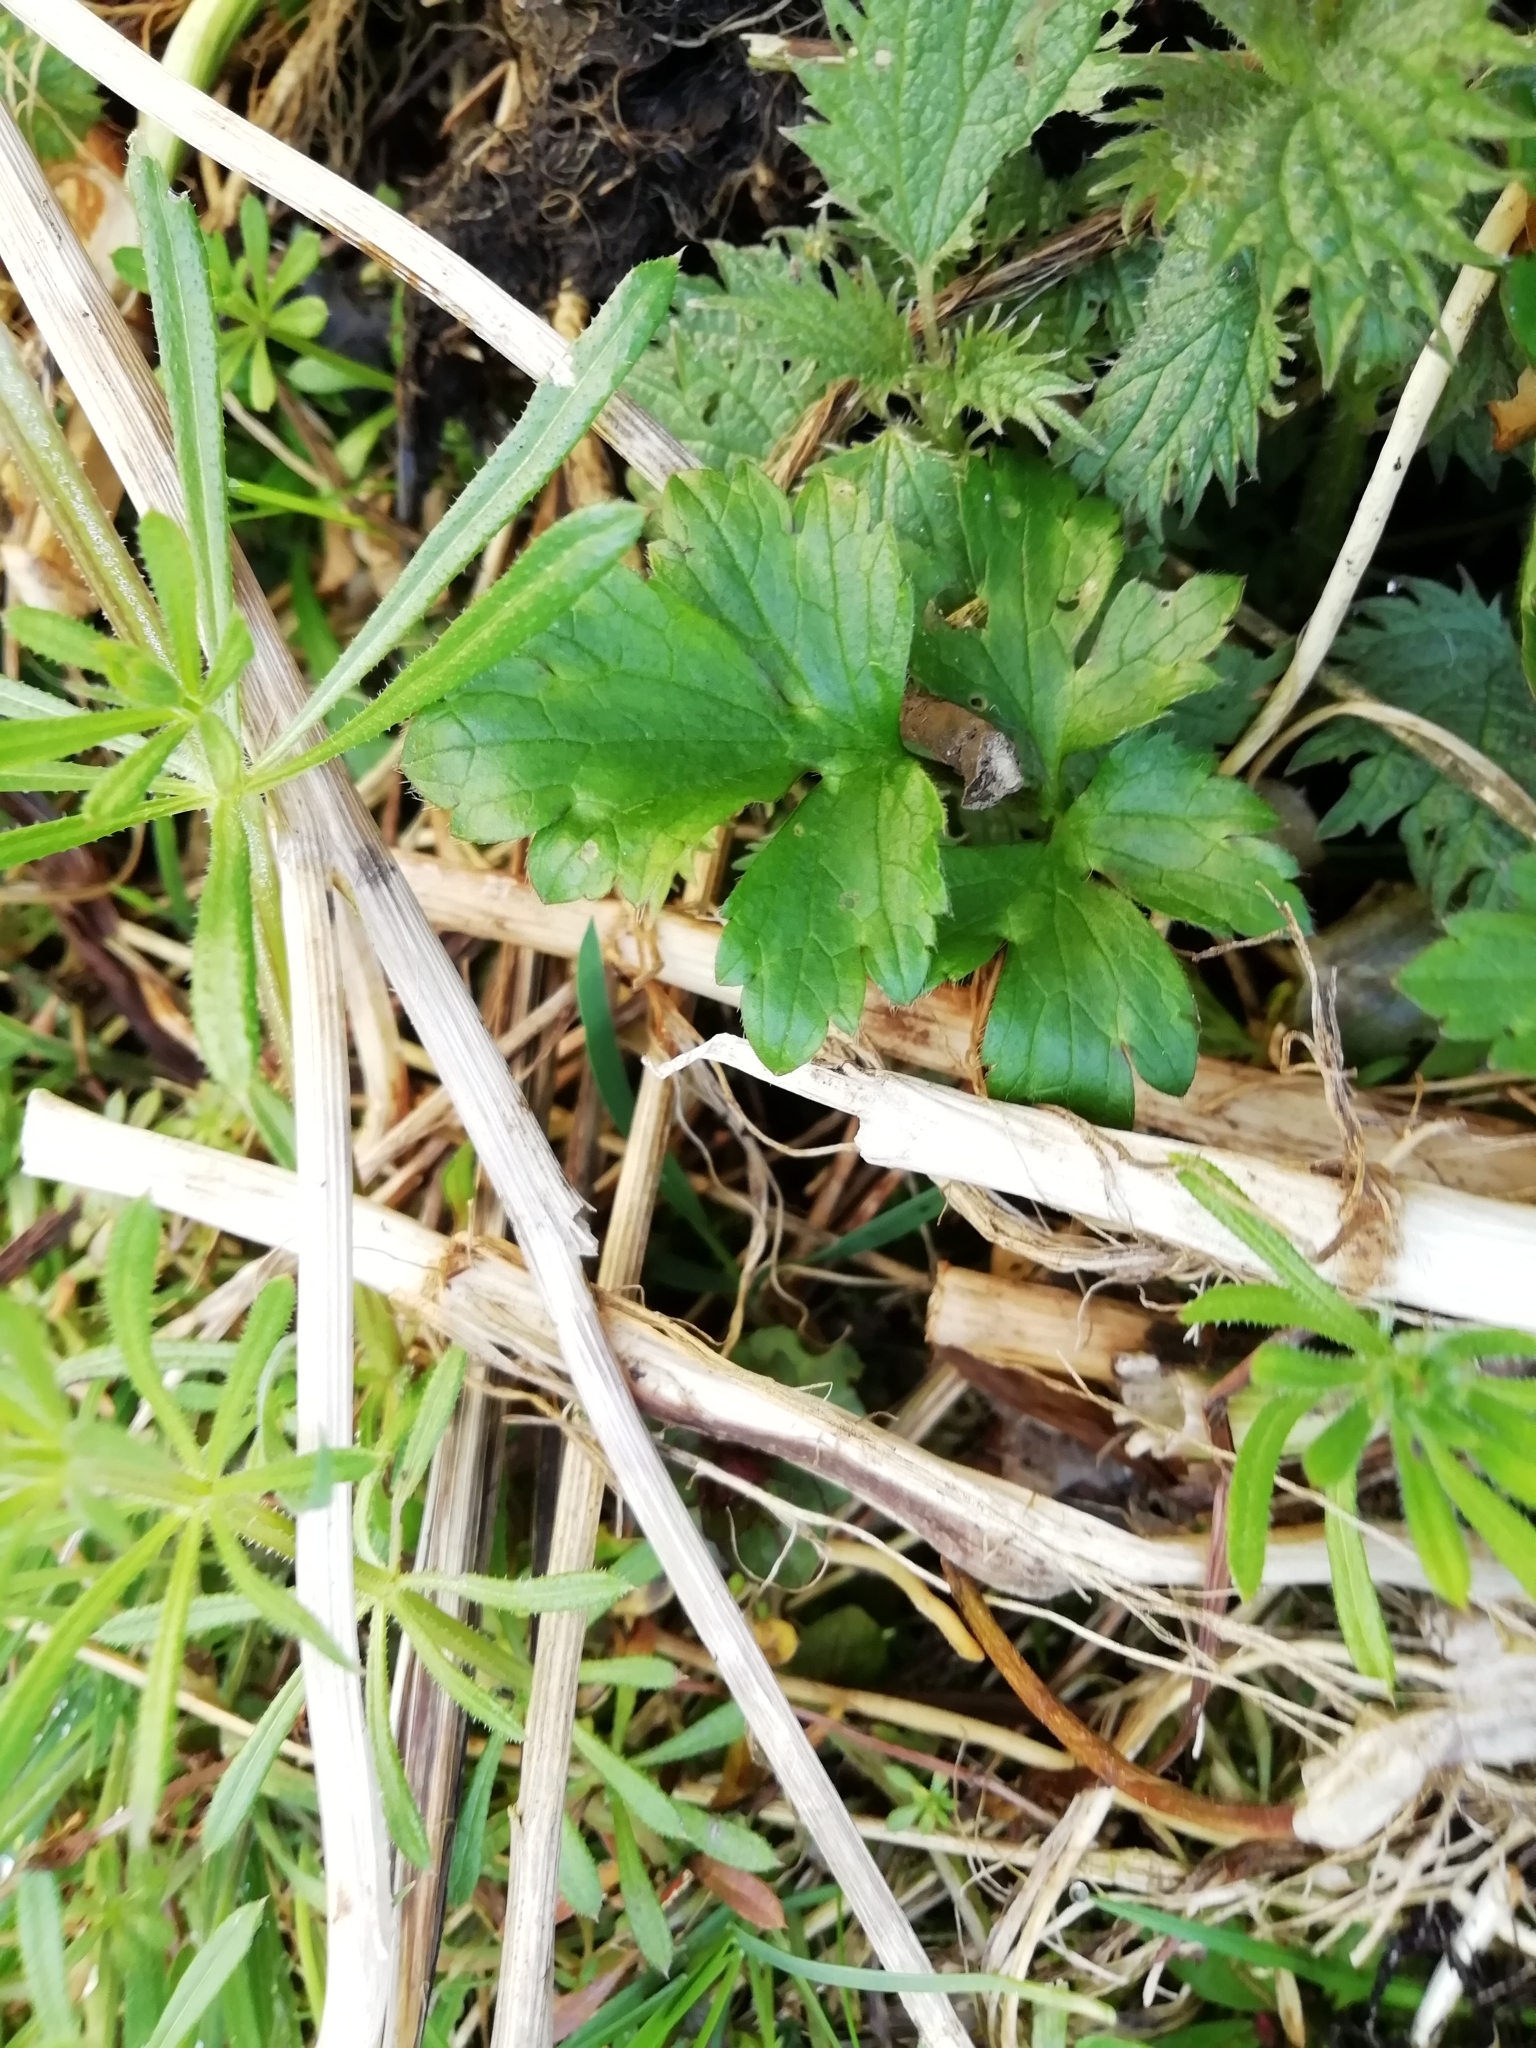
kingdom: Plantae
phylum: Tracheophyta
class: Magnoliopsida
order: Ranunculales
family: Ranunculaceae
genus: Ranunculus
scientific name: Ranunculus repens
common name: Creeping buttercup
